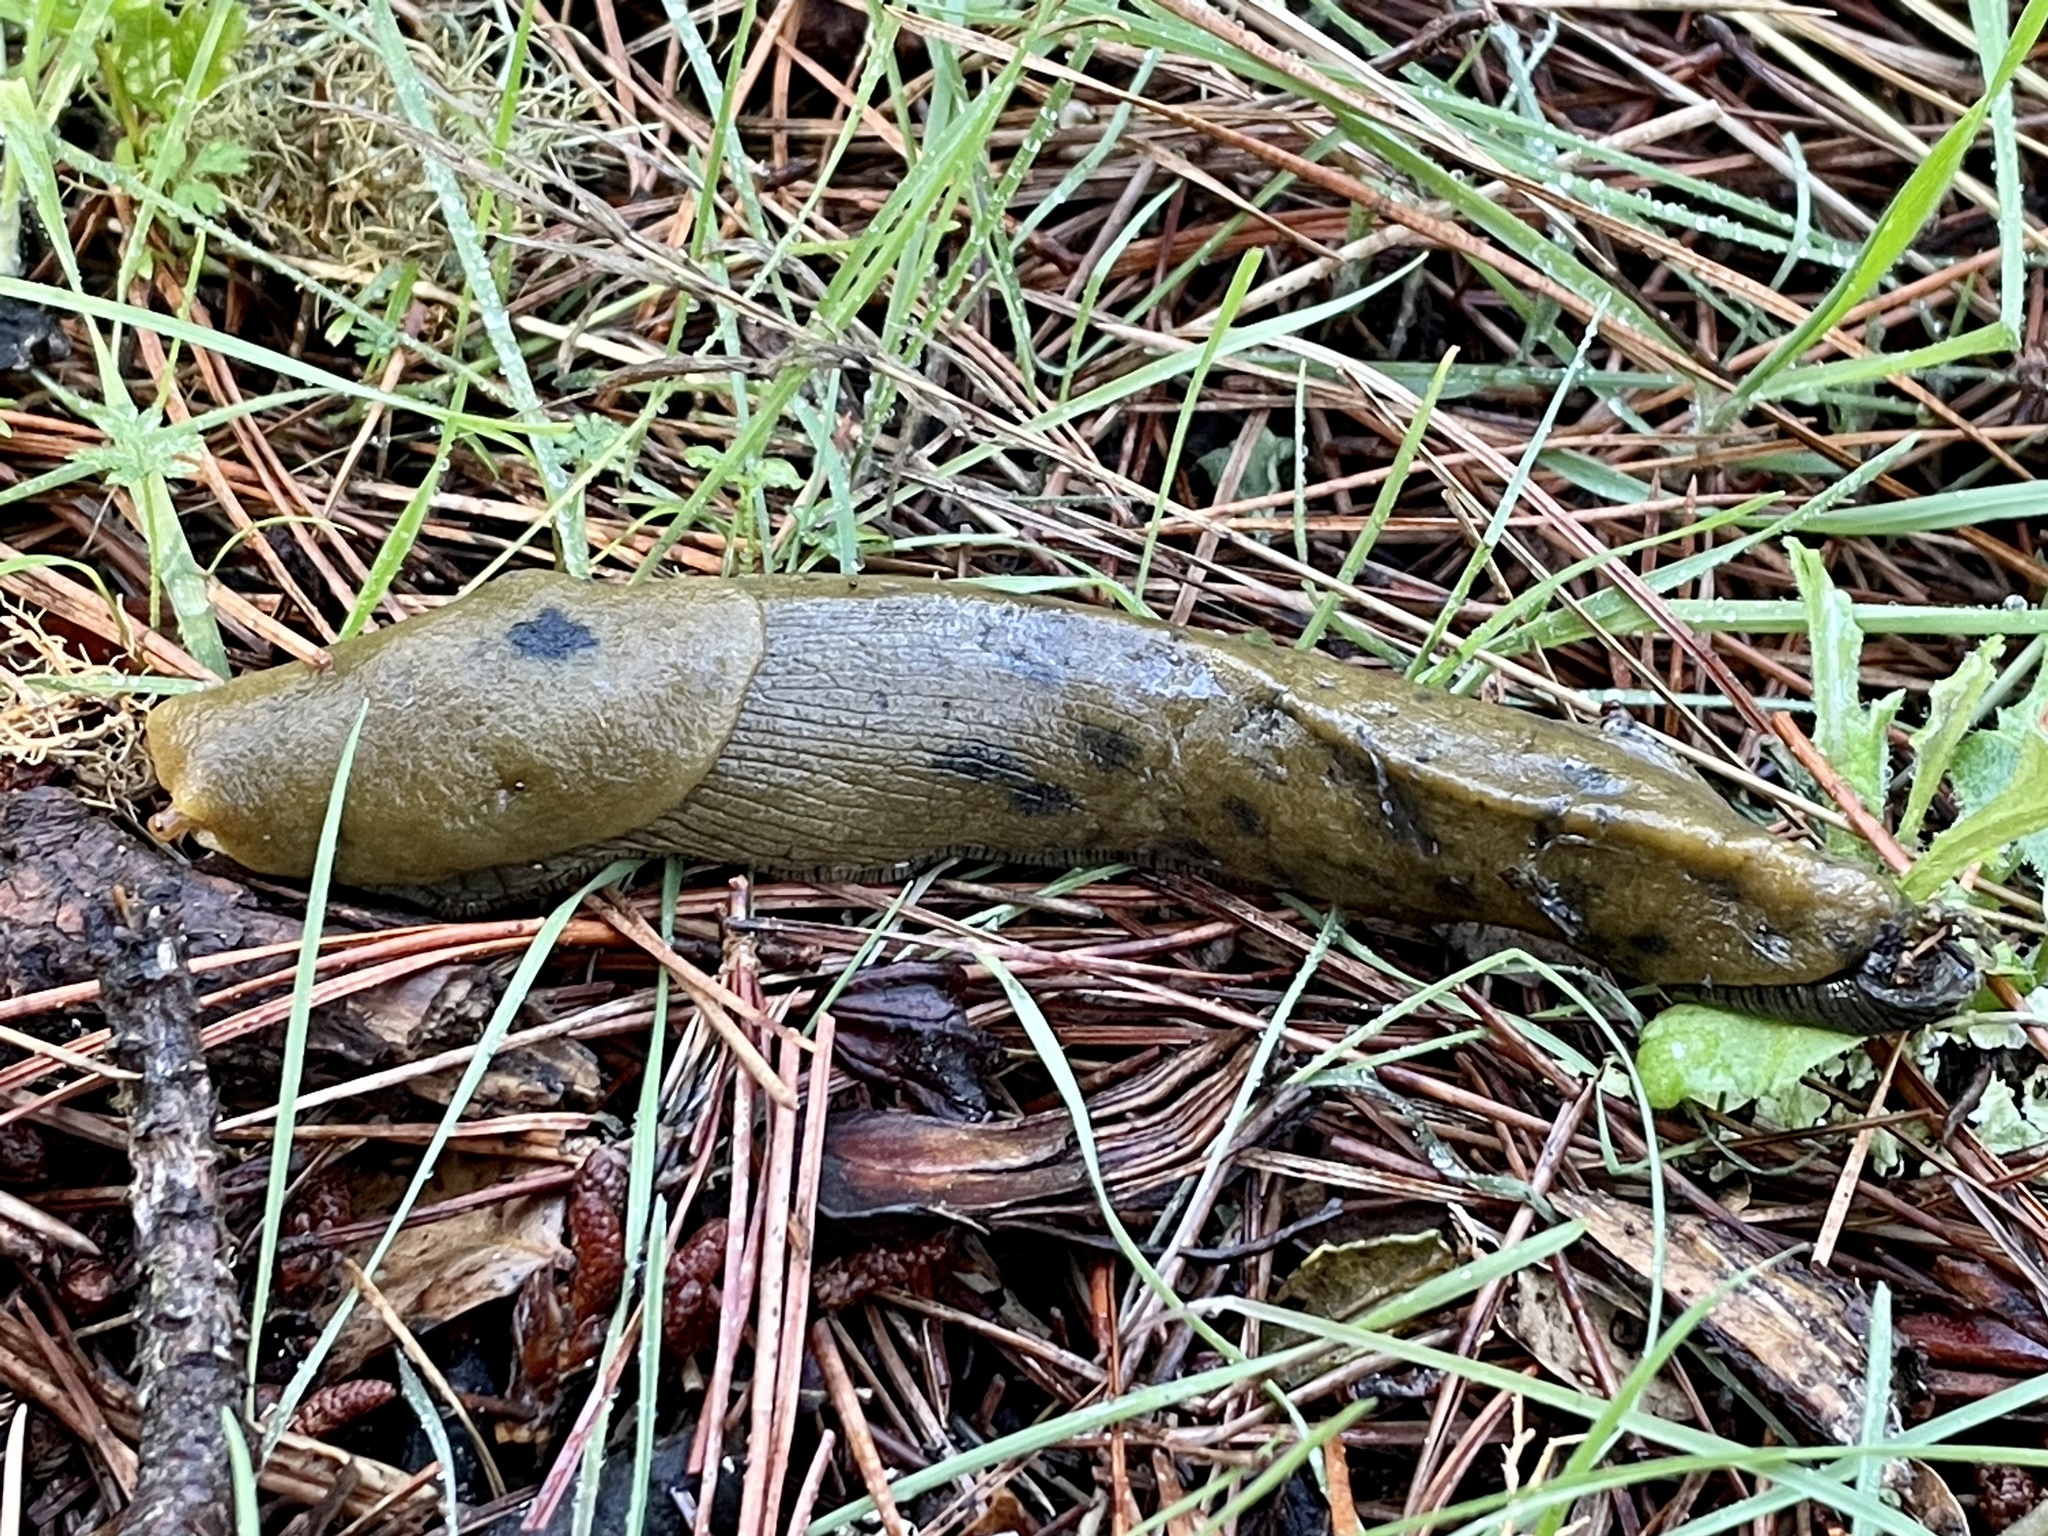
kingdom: Animalia
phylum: Mollusca
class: Gastropoda
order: Stylommatophora
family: Ariolimacidae
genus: Ariolimax
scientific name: Ariolimax buttoni
